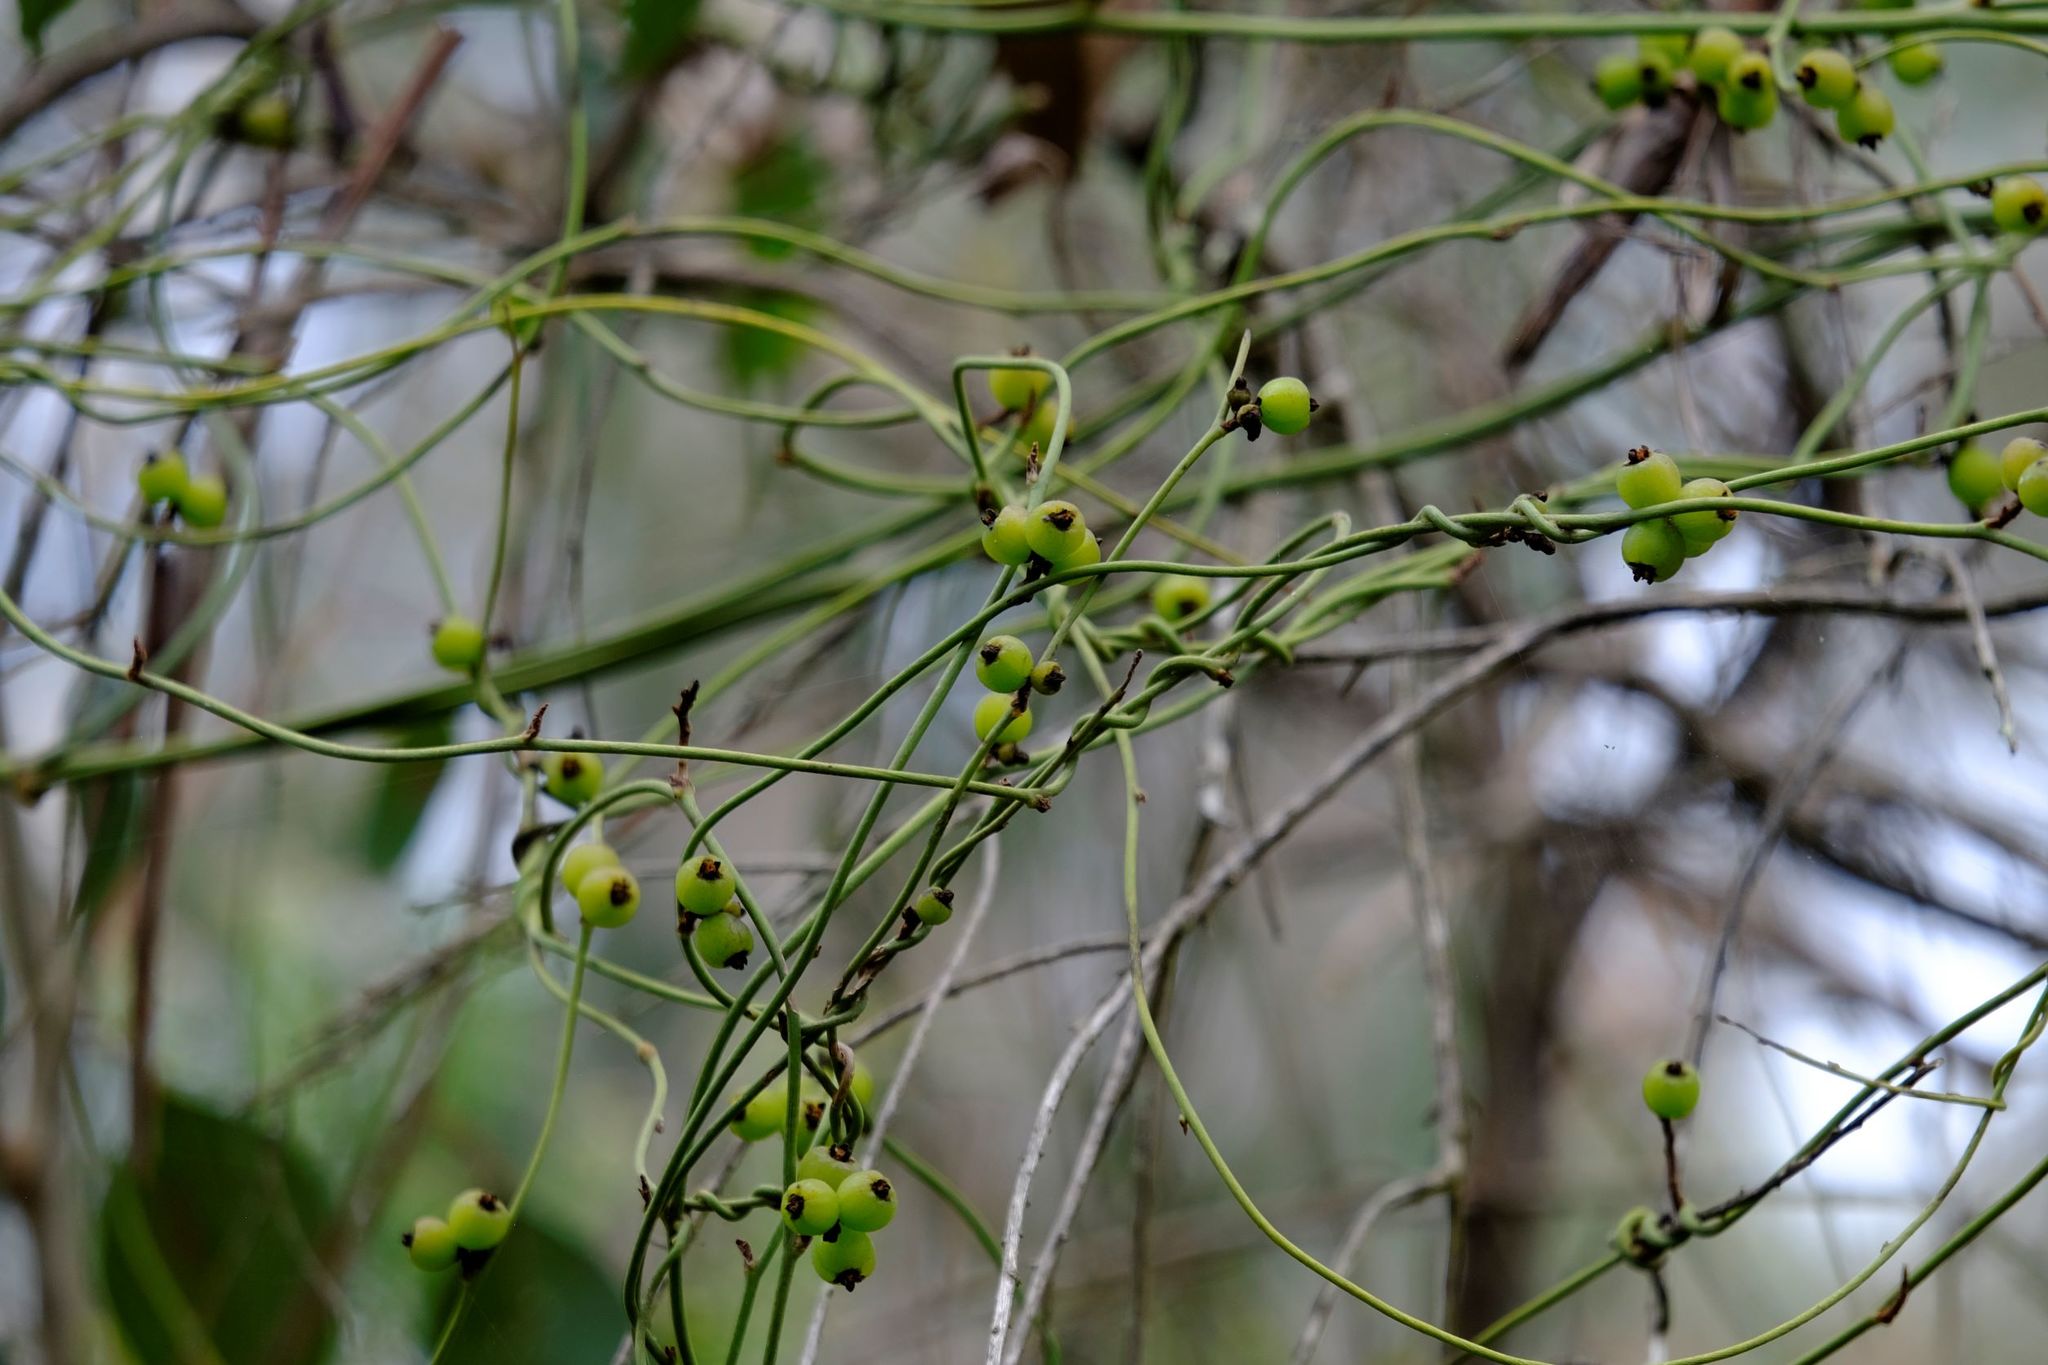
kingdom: Plantae
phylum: Tracheophyta
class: Magnoliopsida
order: Laurales
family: Lauraceae
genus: Cassytha
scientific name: Cassytha melantha
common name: Mallee stranglevine
